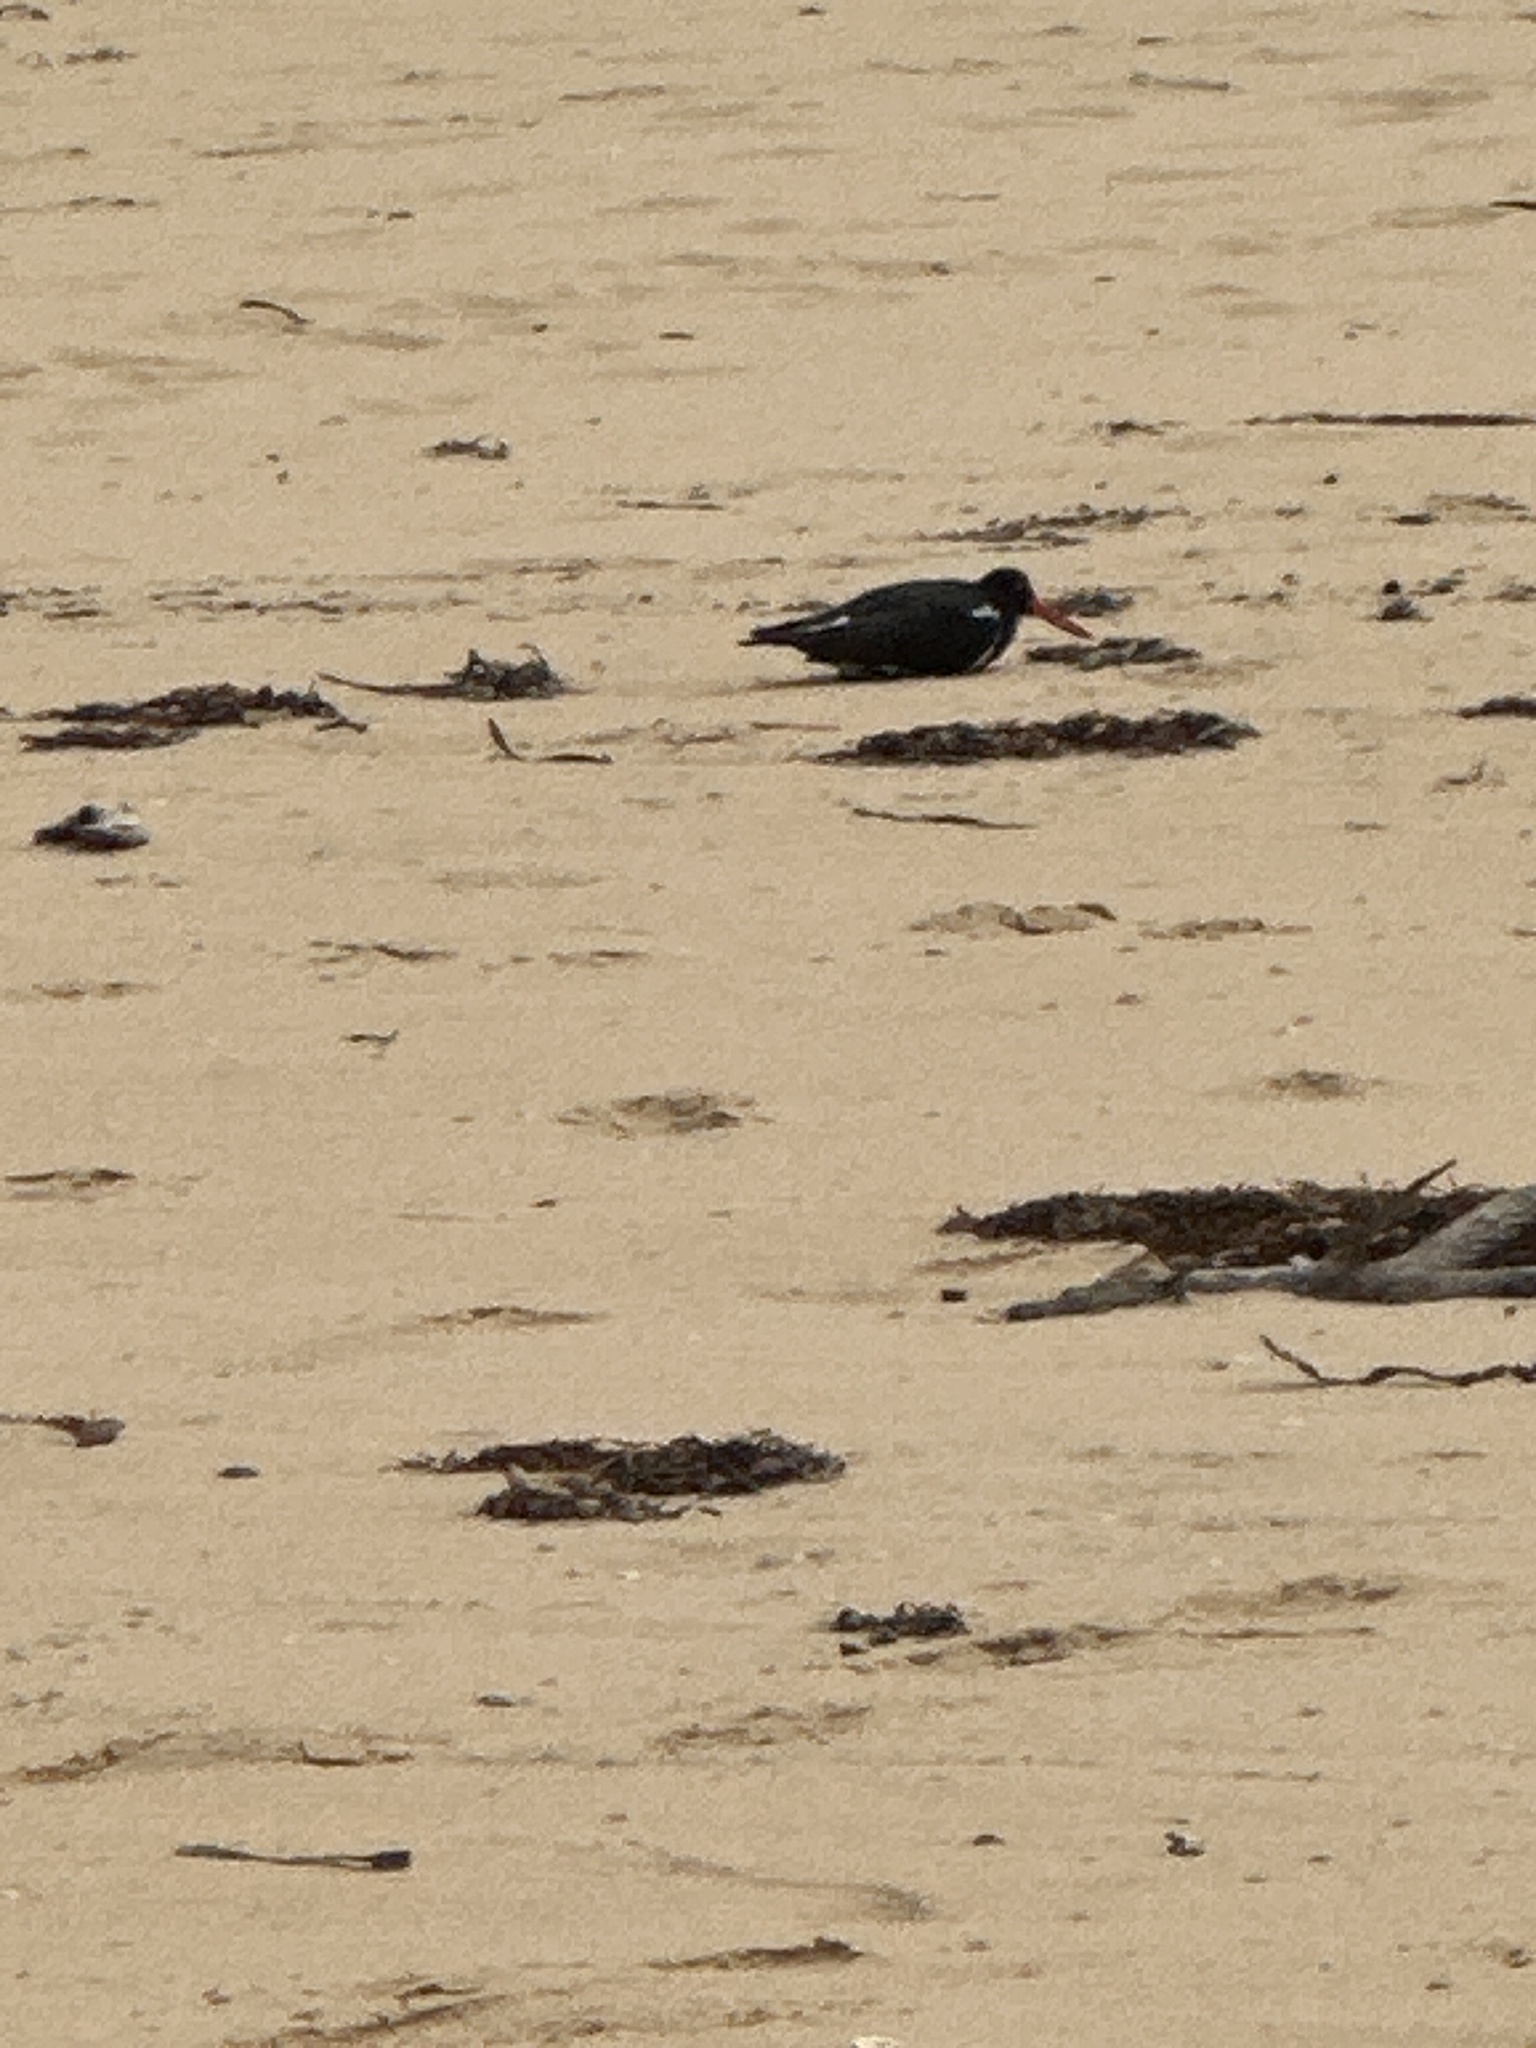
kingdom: Animalia
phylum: Chordata
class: Aves
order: Charadriiformes
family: Haematopodidae
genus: Haematopus
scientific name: Haematopus longirostris
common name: Pied oystercatcher
